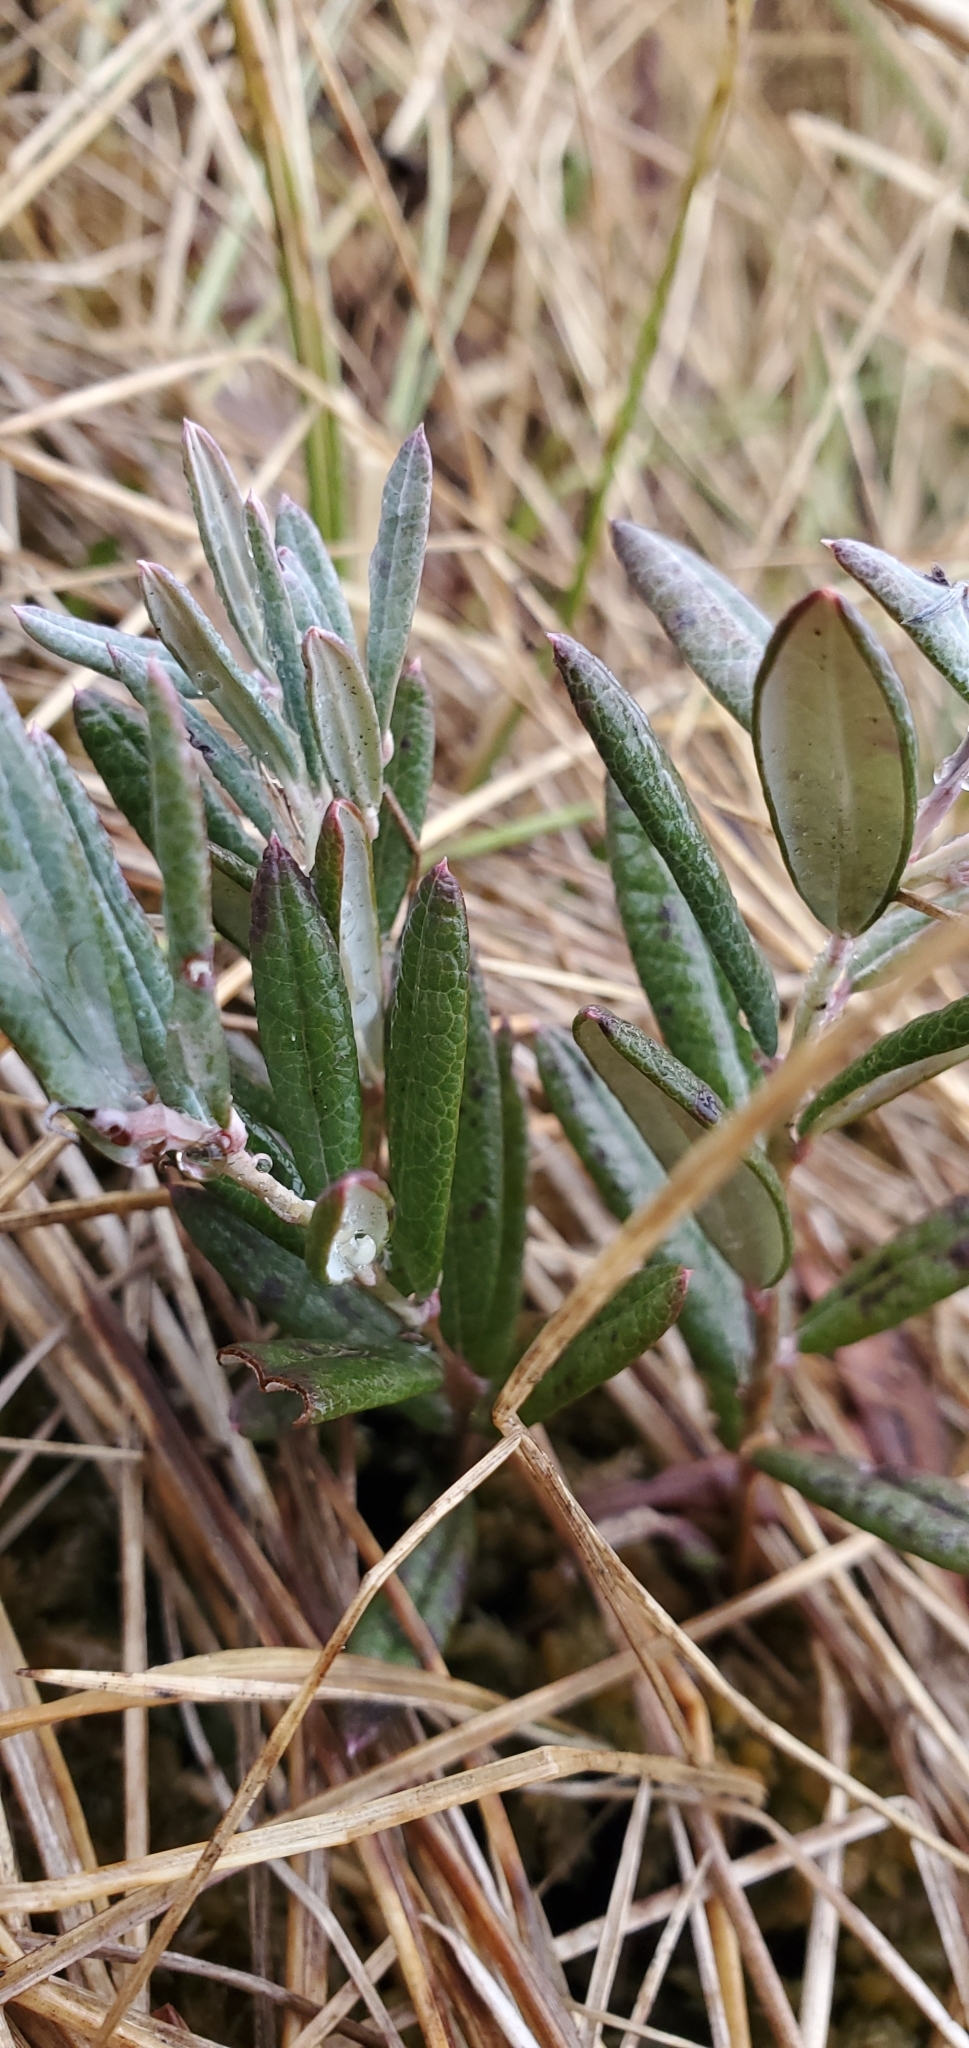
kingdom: Plantae
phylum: Tracheophyta
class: Magnoliopsida
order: Ericales
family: Ericaceae
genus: Andromeda
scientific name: Andromeda polifolia
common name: Bog-rosemary
